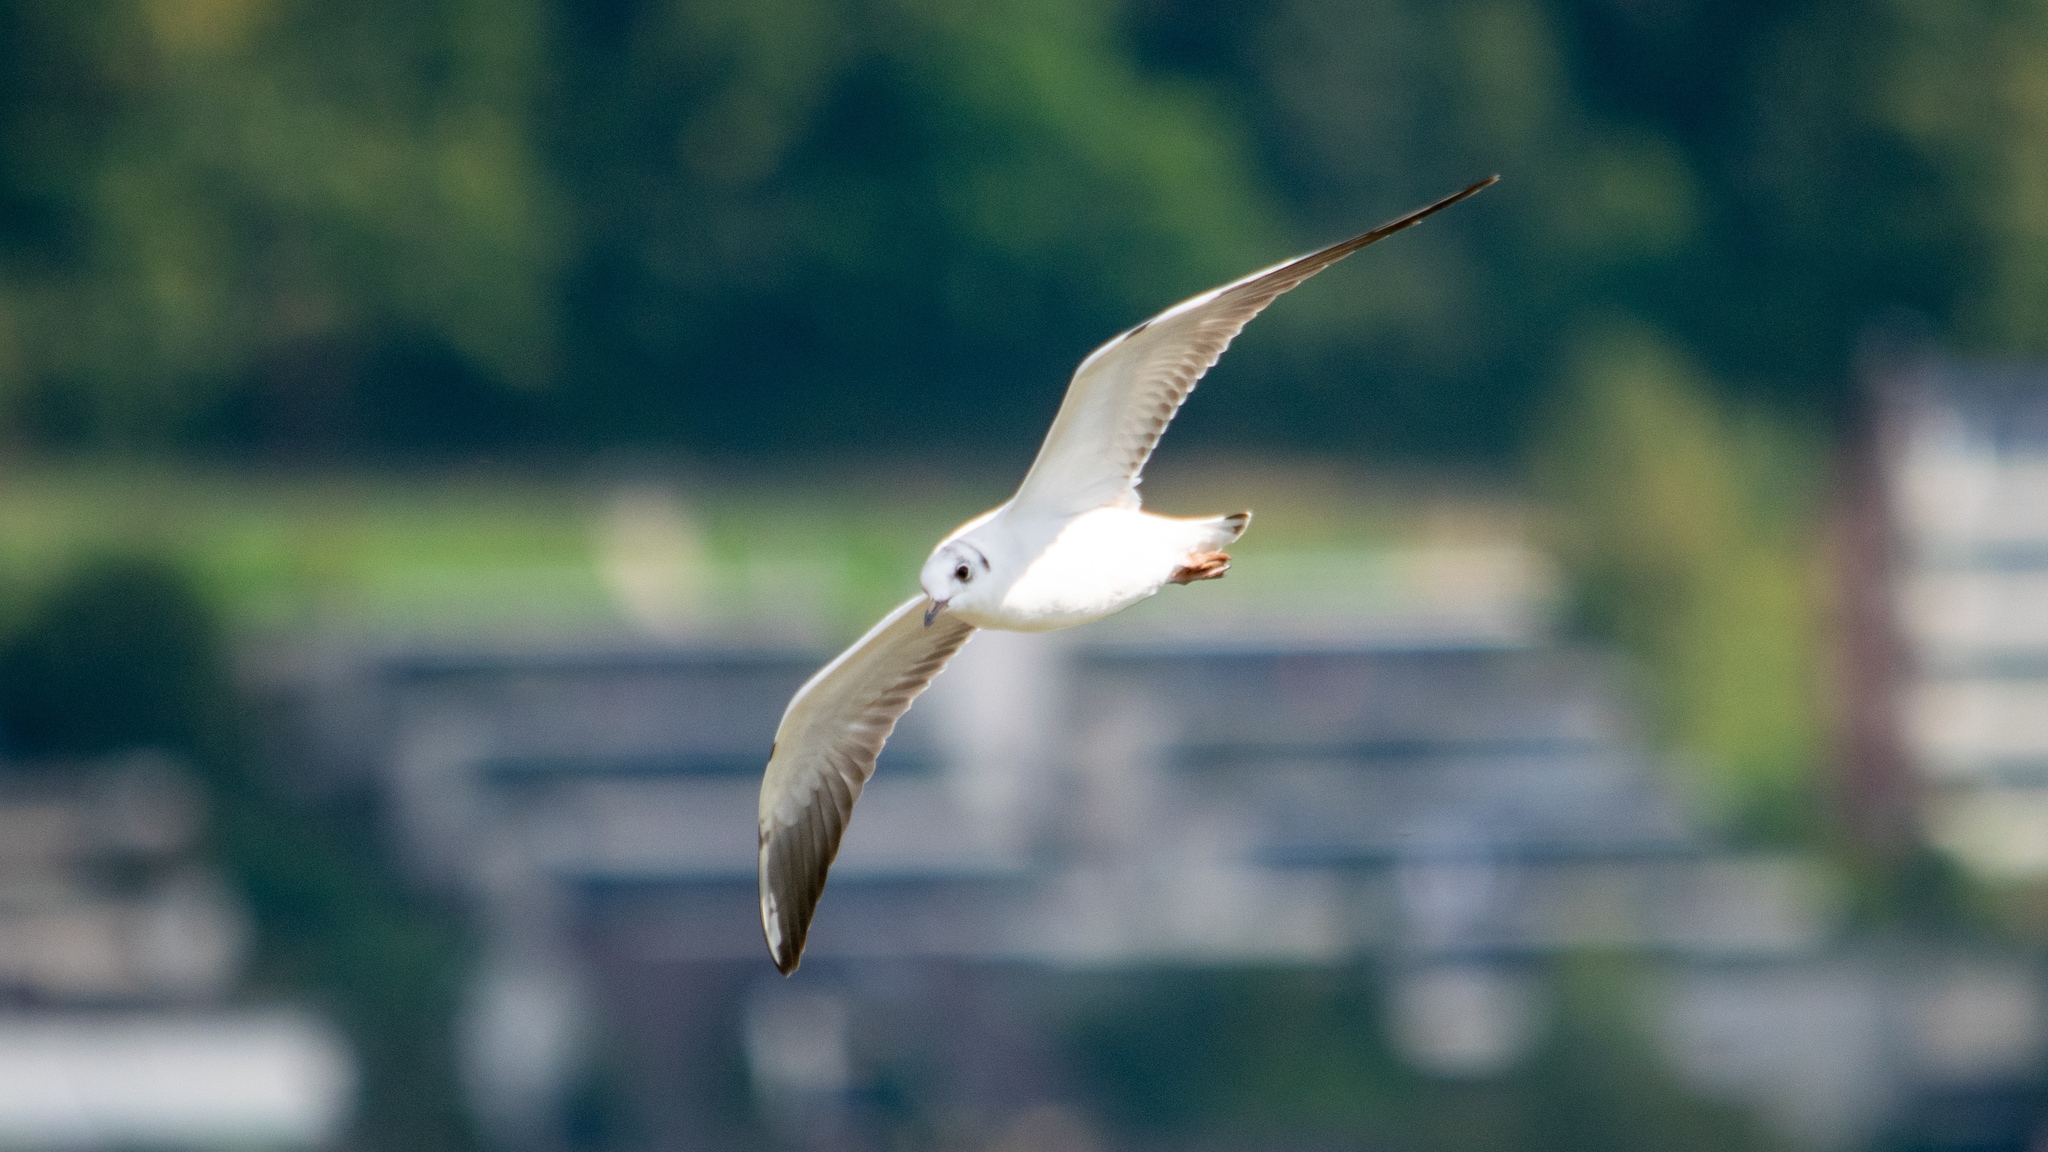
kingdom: Animalia
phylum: Chordata
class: Aves
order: Charadriiformes
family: Laridae
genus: Chroicocephalus
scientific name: Chroicocephalus ridibundus
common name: Black-headed gull
